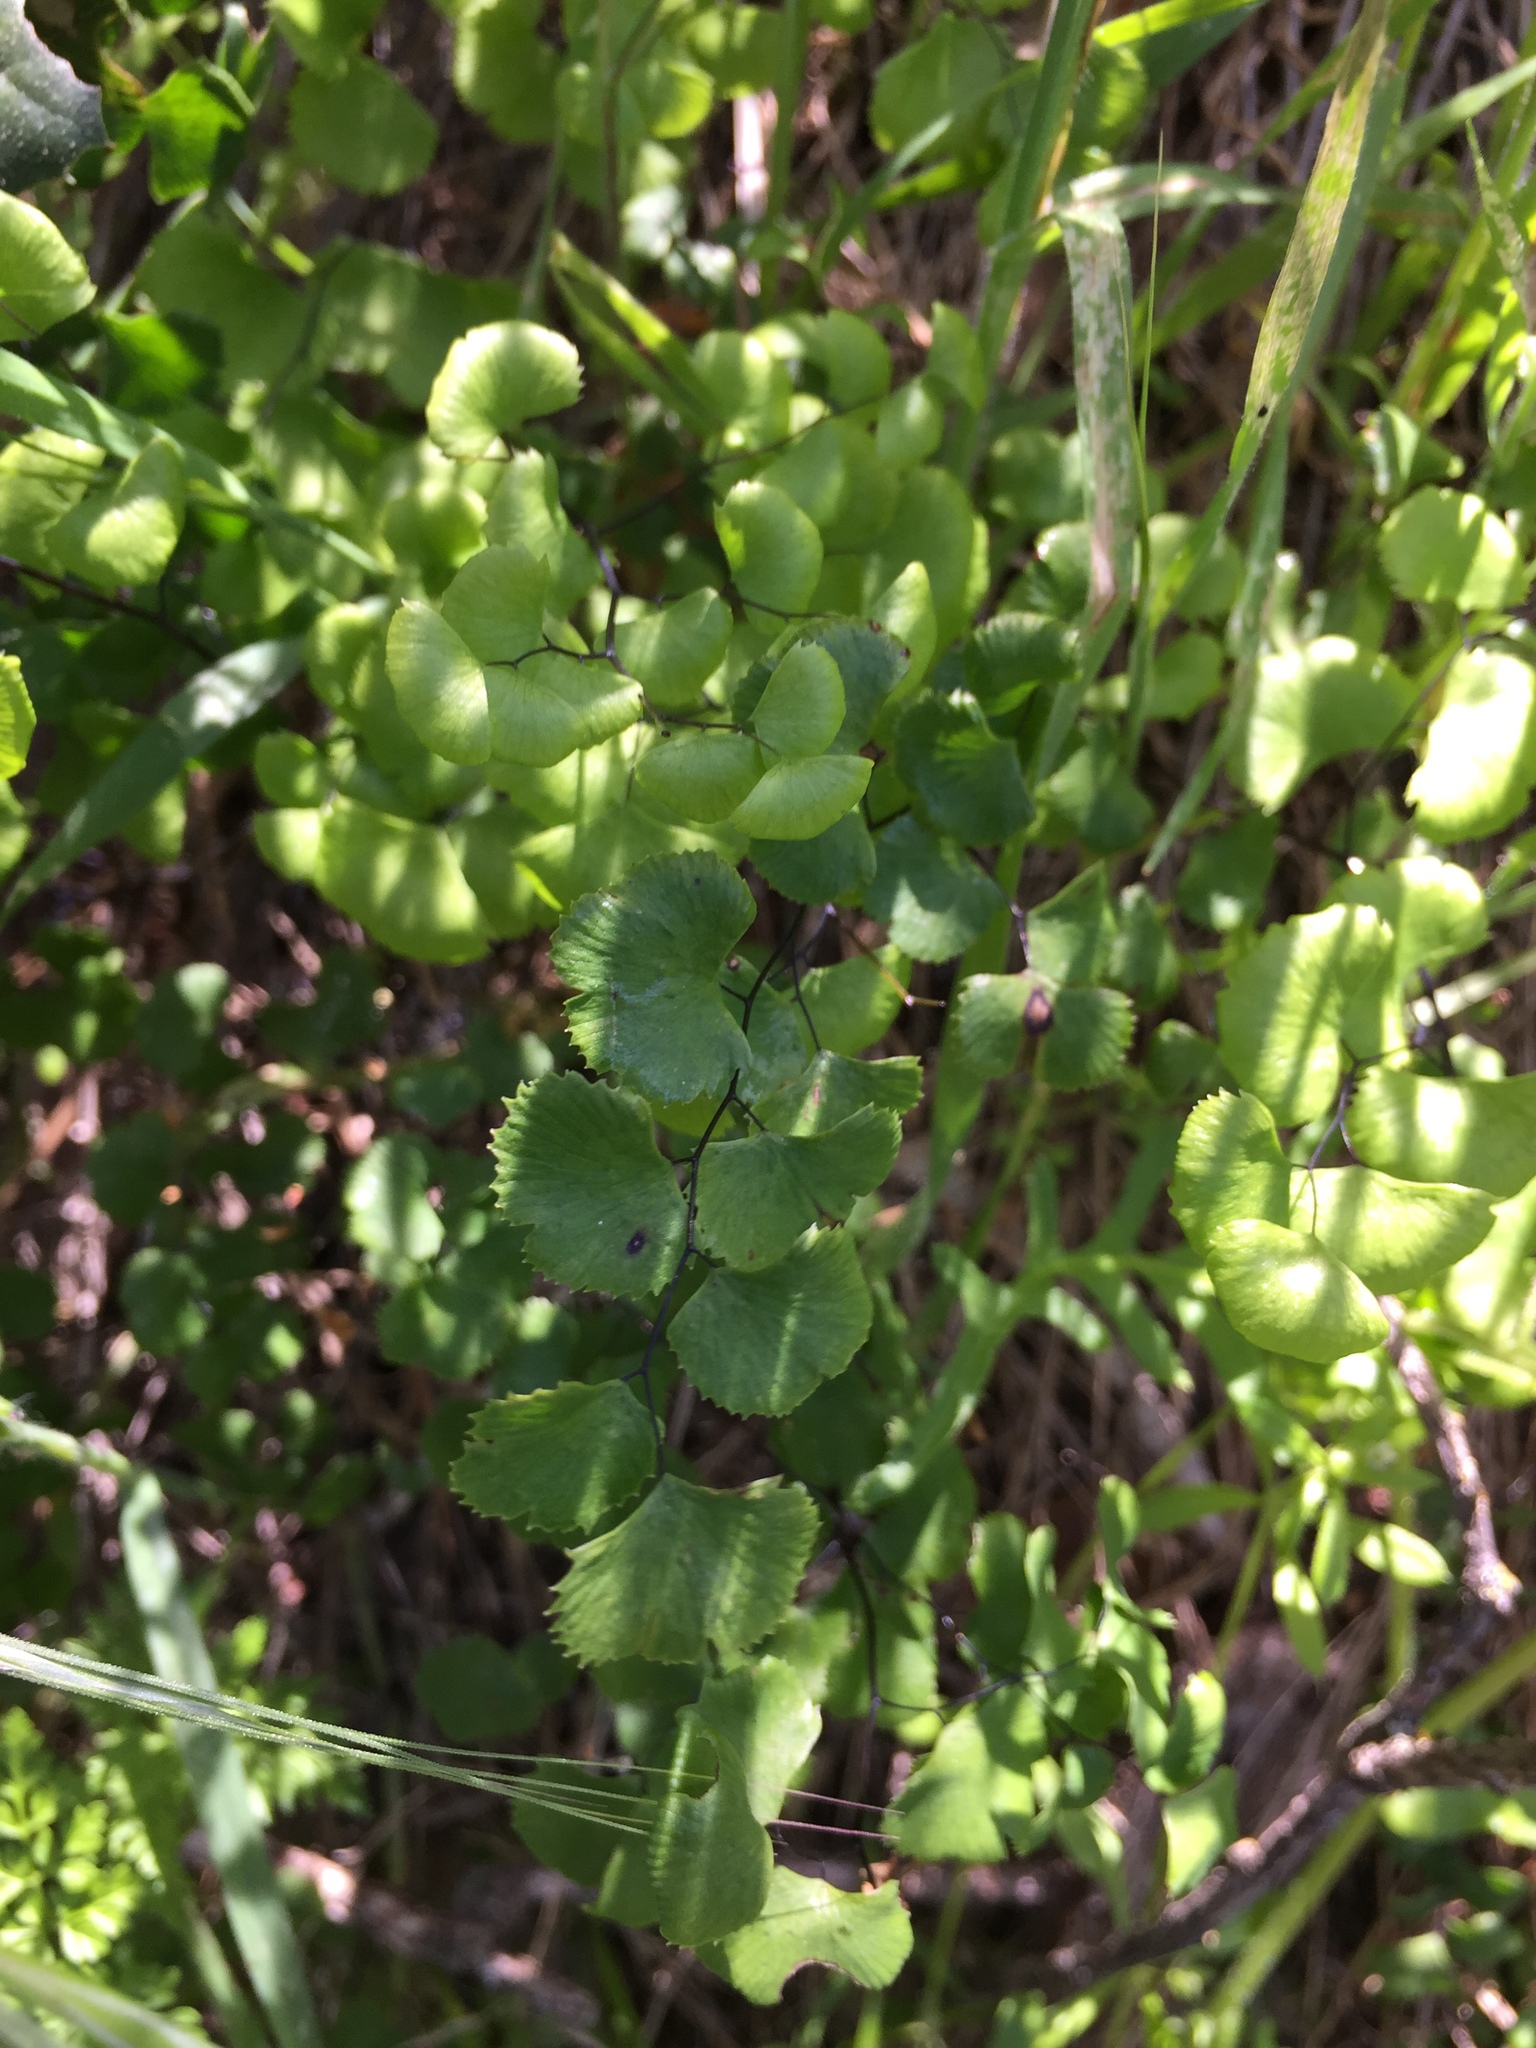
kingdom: Plantae
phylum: Tracheophyta
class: Polypodiopsida
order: Polypodiales
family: Pteridaceae
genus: Adiantum
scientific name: Adiantum jordanii
